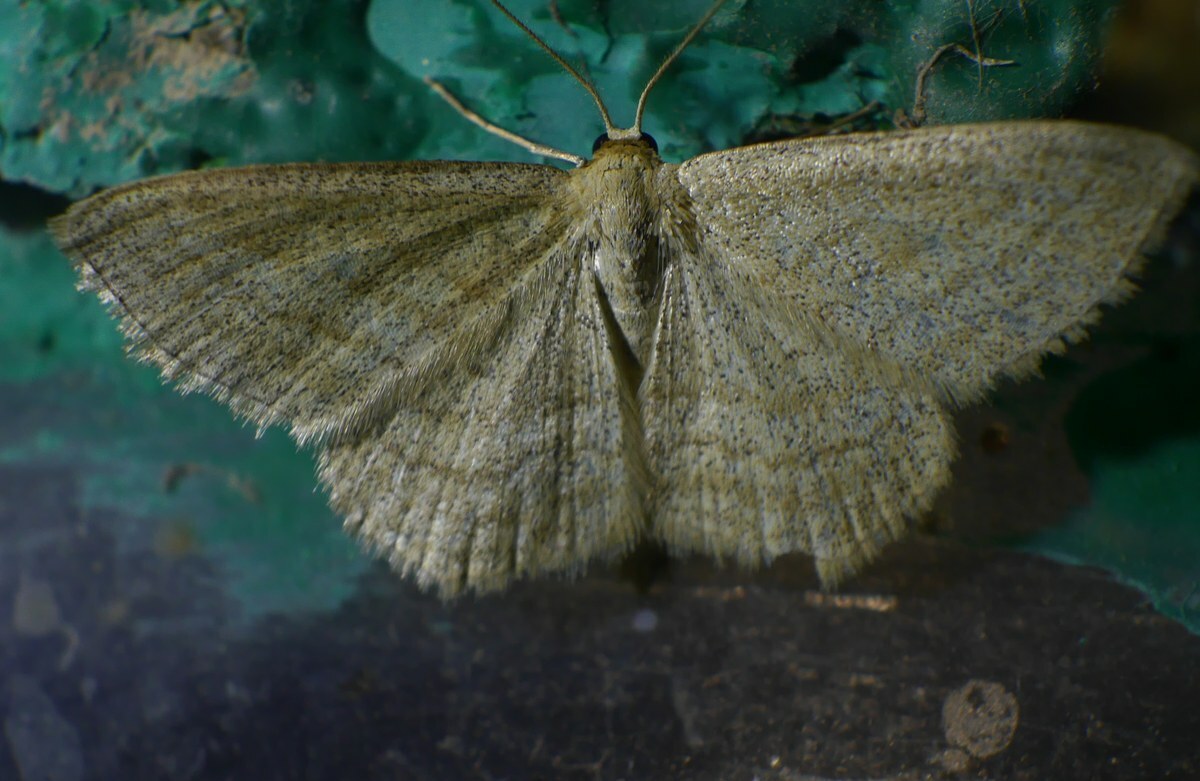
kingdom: Animalia
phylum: Arthropoda
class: Insecta
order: Lepidoptera
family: Geometridae
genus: Scopula
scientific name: Scopula virgulata
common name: Streaked wave
